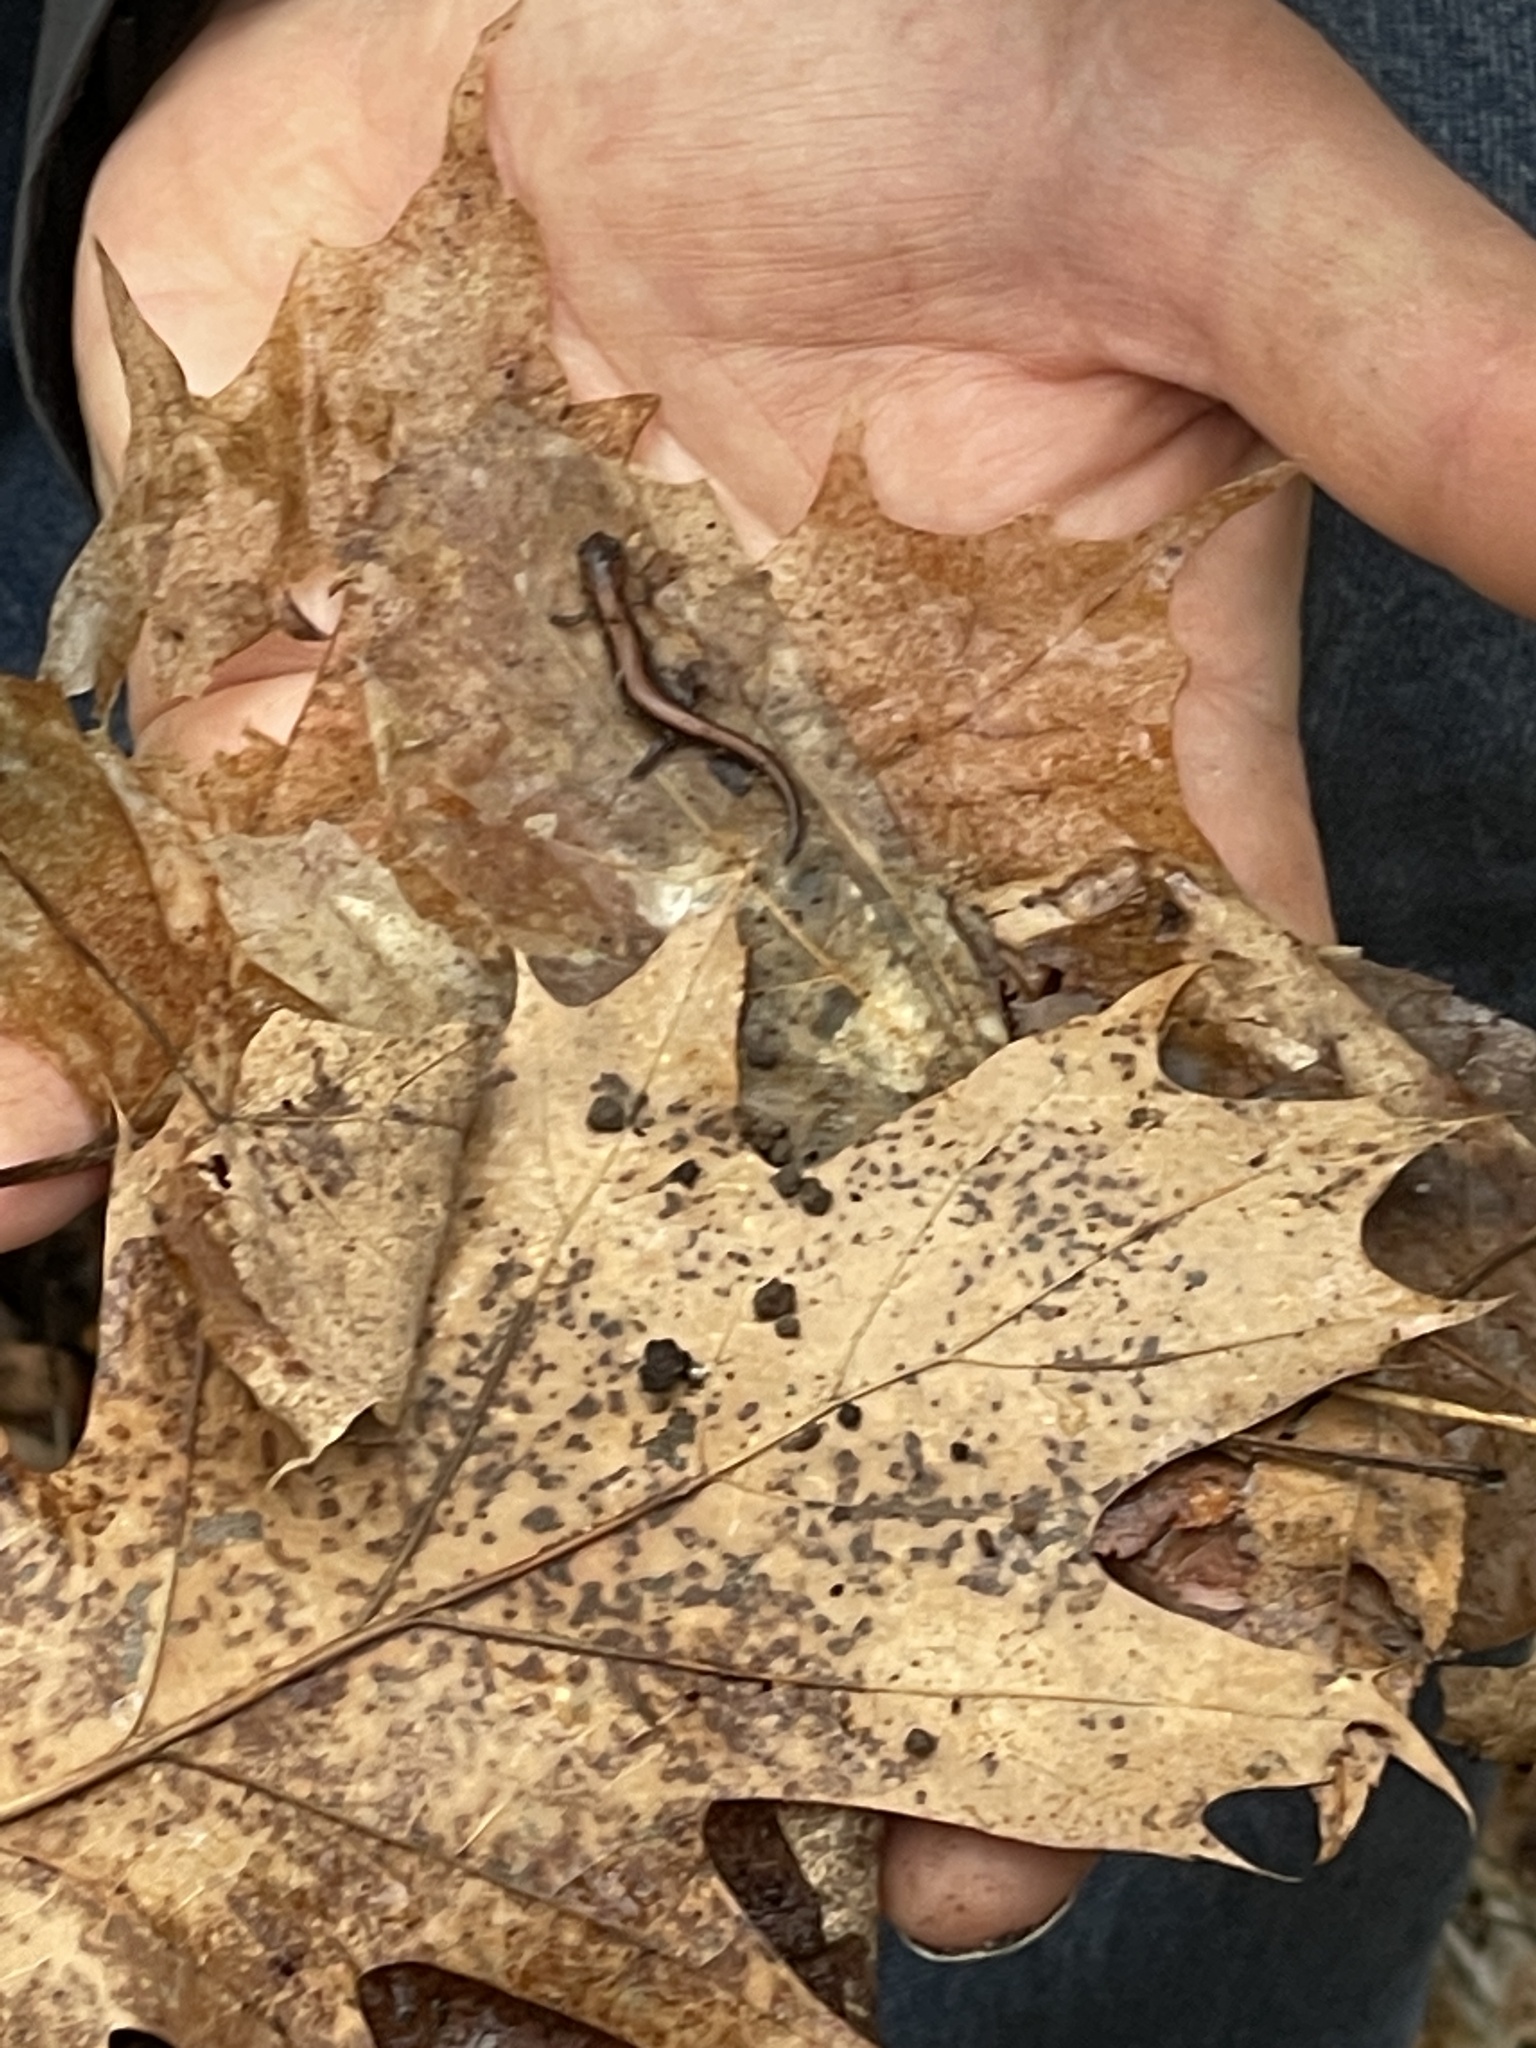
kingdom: Animalia
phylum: Chordata
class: Amphibia
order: Caudata
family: Plethodontidae
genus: Plethodon
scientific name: Plethodon cinereus
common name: Redback salamander
